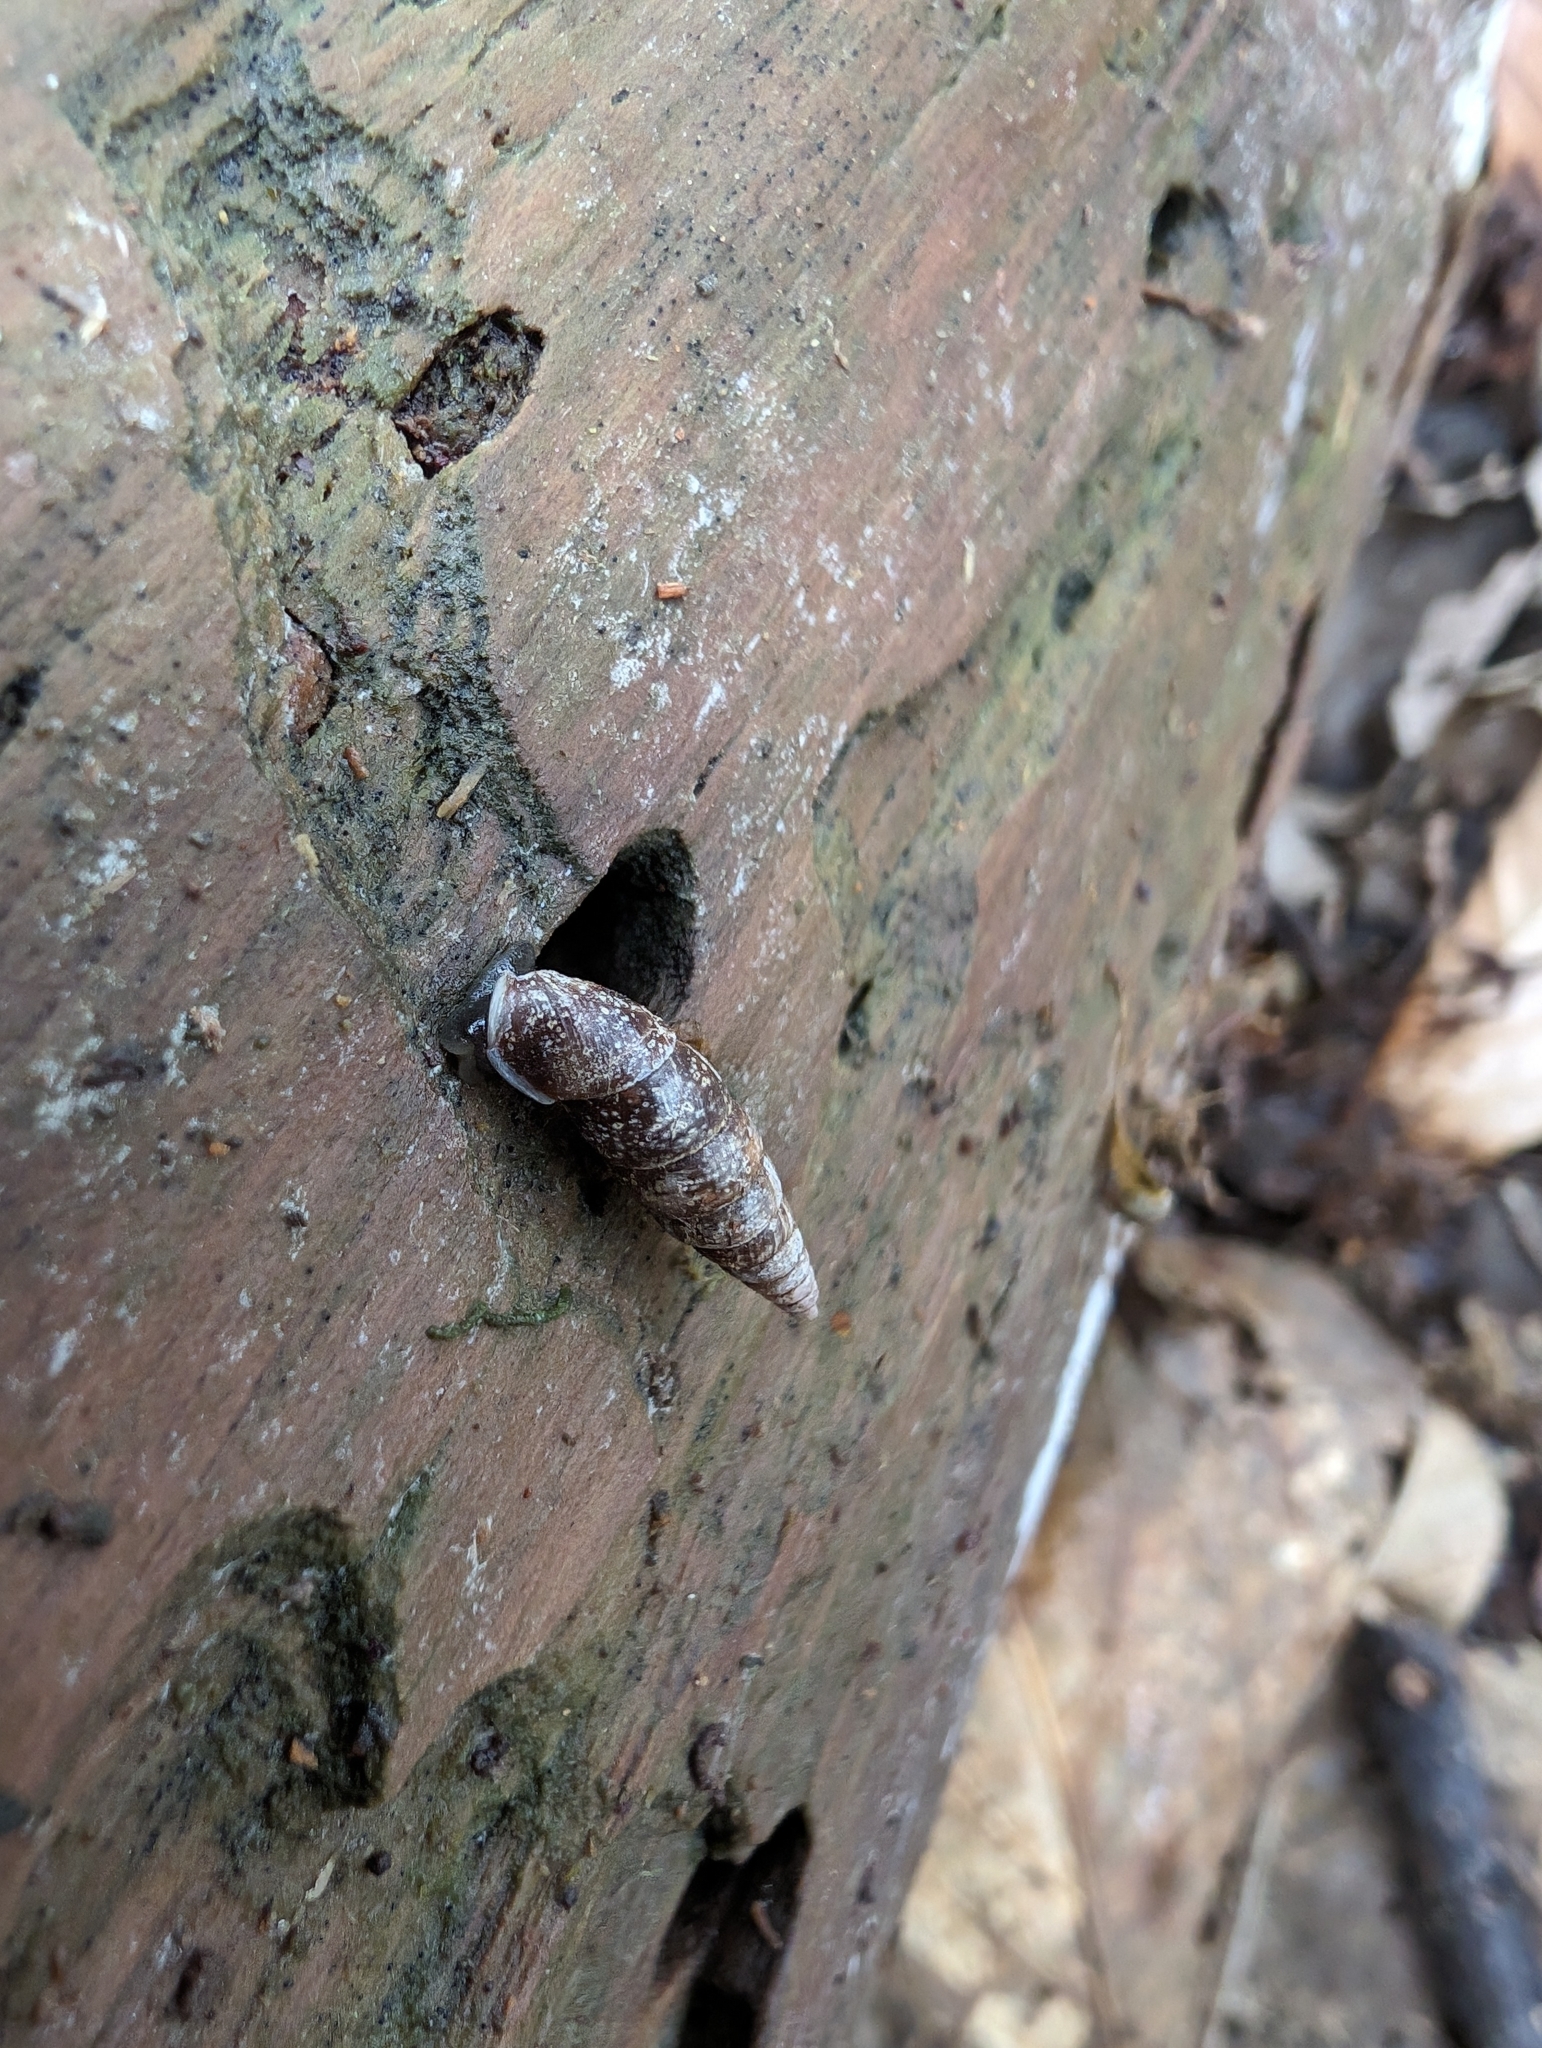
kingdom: Animalia
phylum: Mollusca
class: Gastropoda
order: Stylommatophora
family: Clausiliidae
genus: Cochlodina
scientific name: Cochlodina laminata
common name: Plaited door snail
